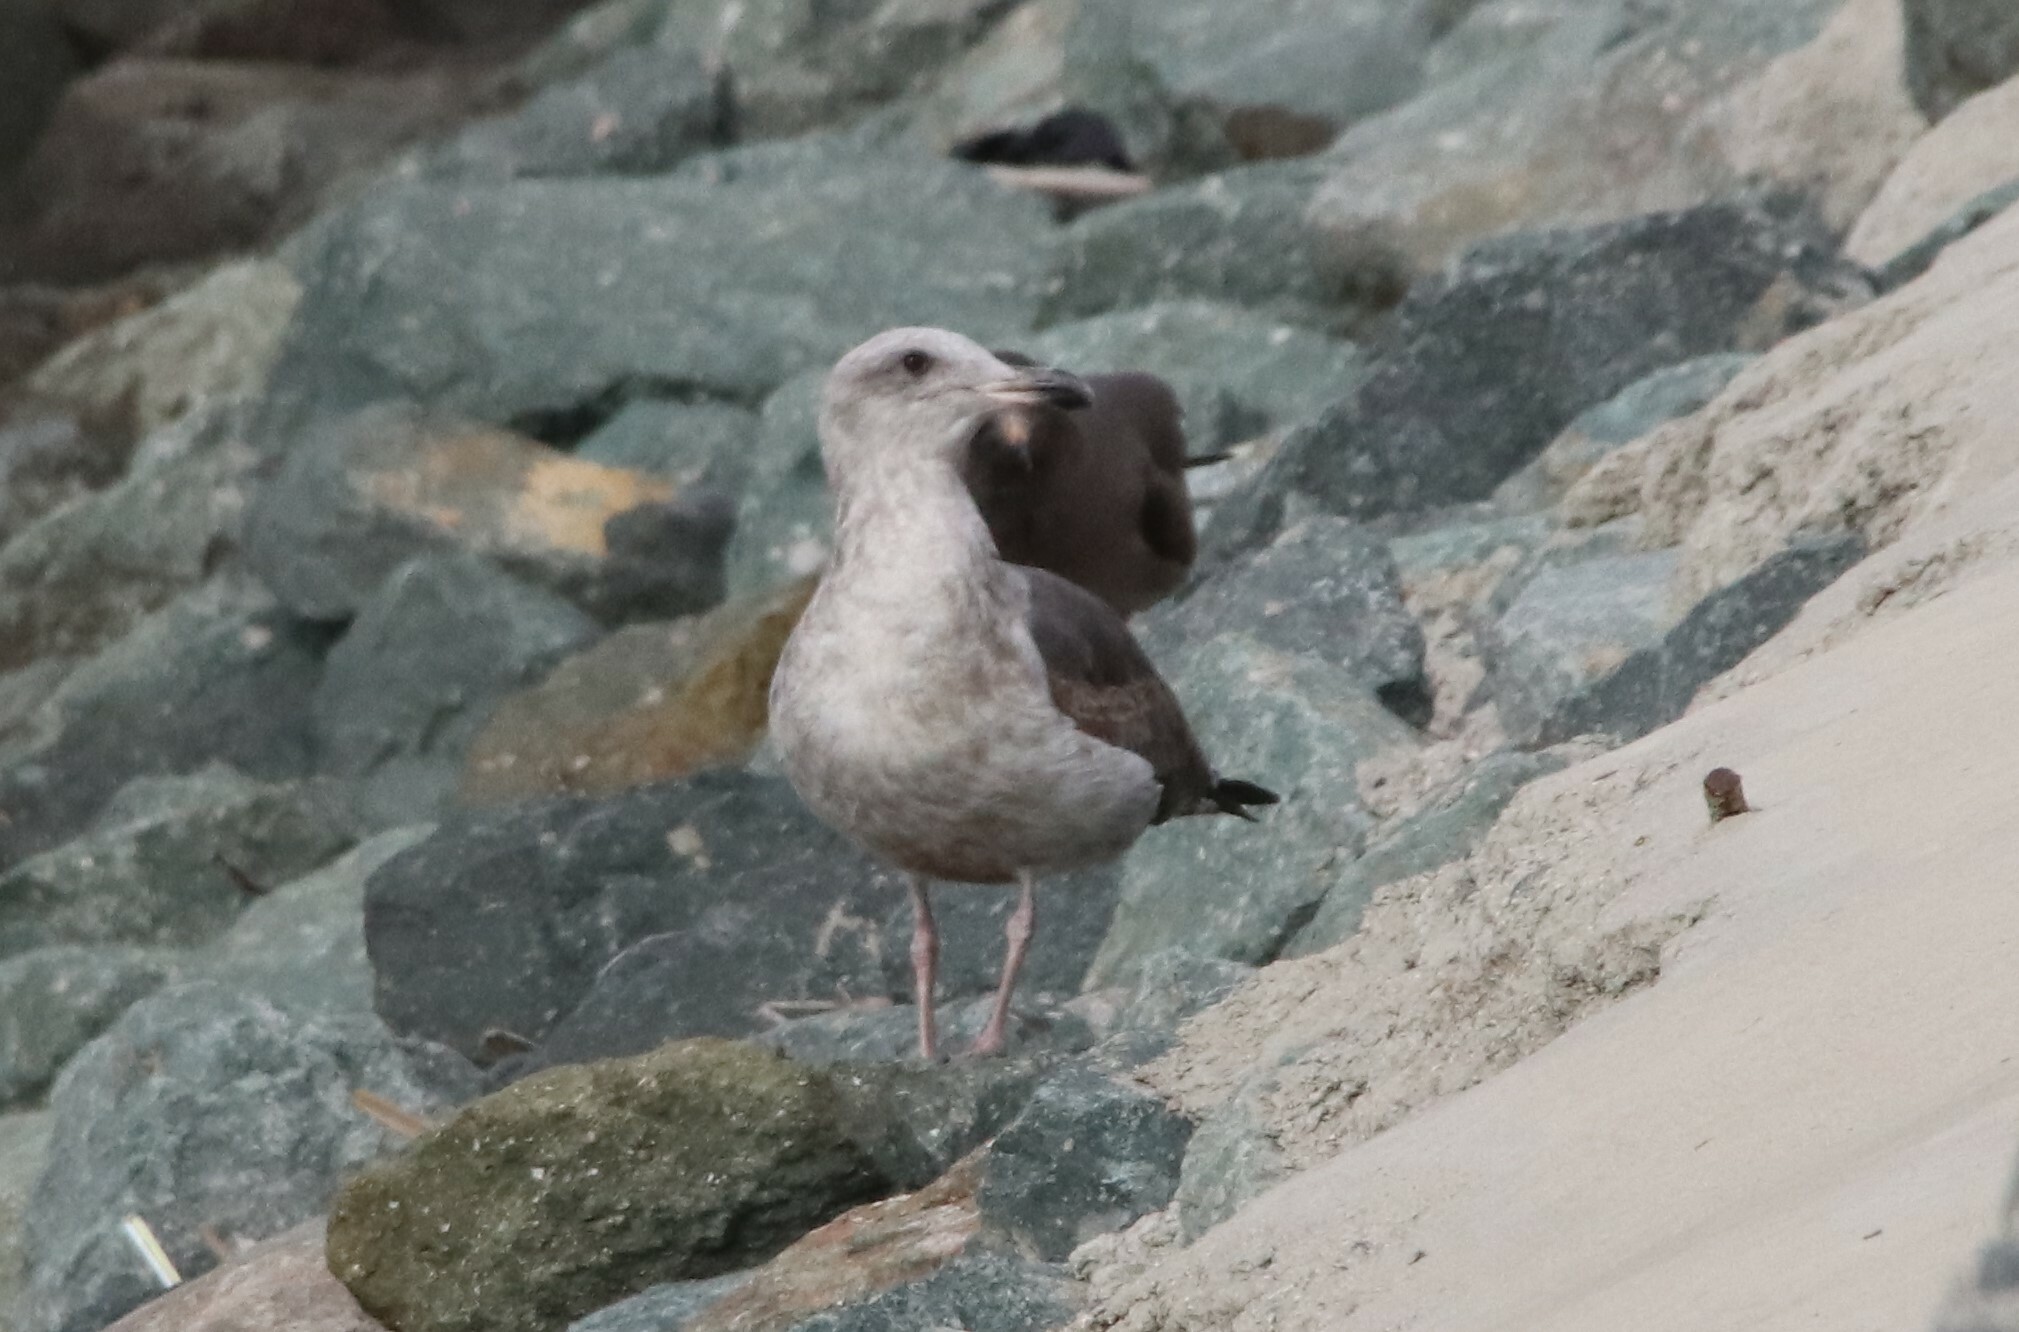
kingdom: Animalia
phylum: Chordata
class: Aves
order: Charadriiformes
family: Laridae
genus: Larus
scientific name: Larus occidentalis
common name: Western gull
